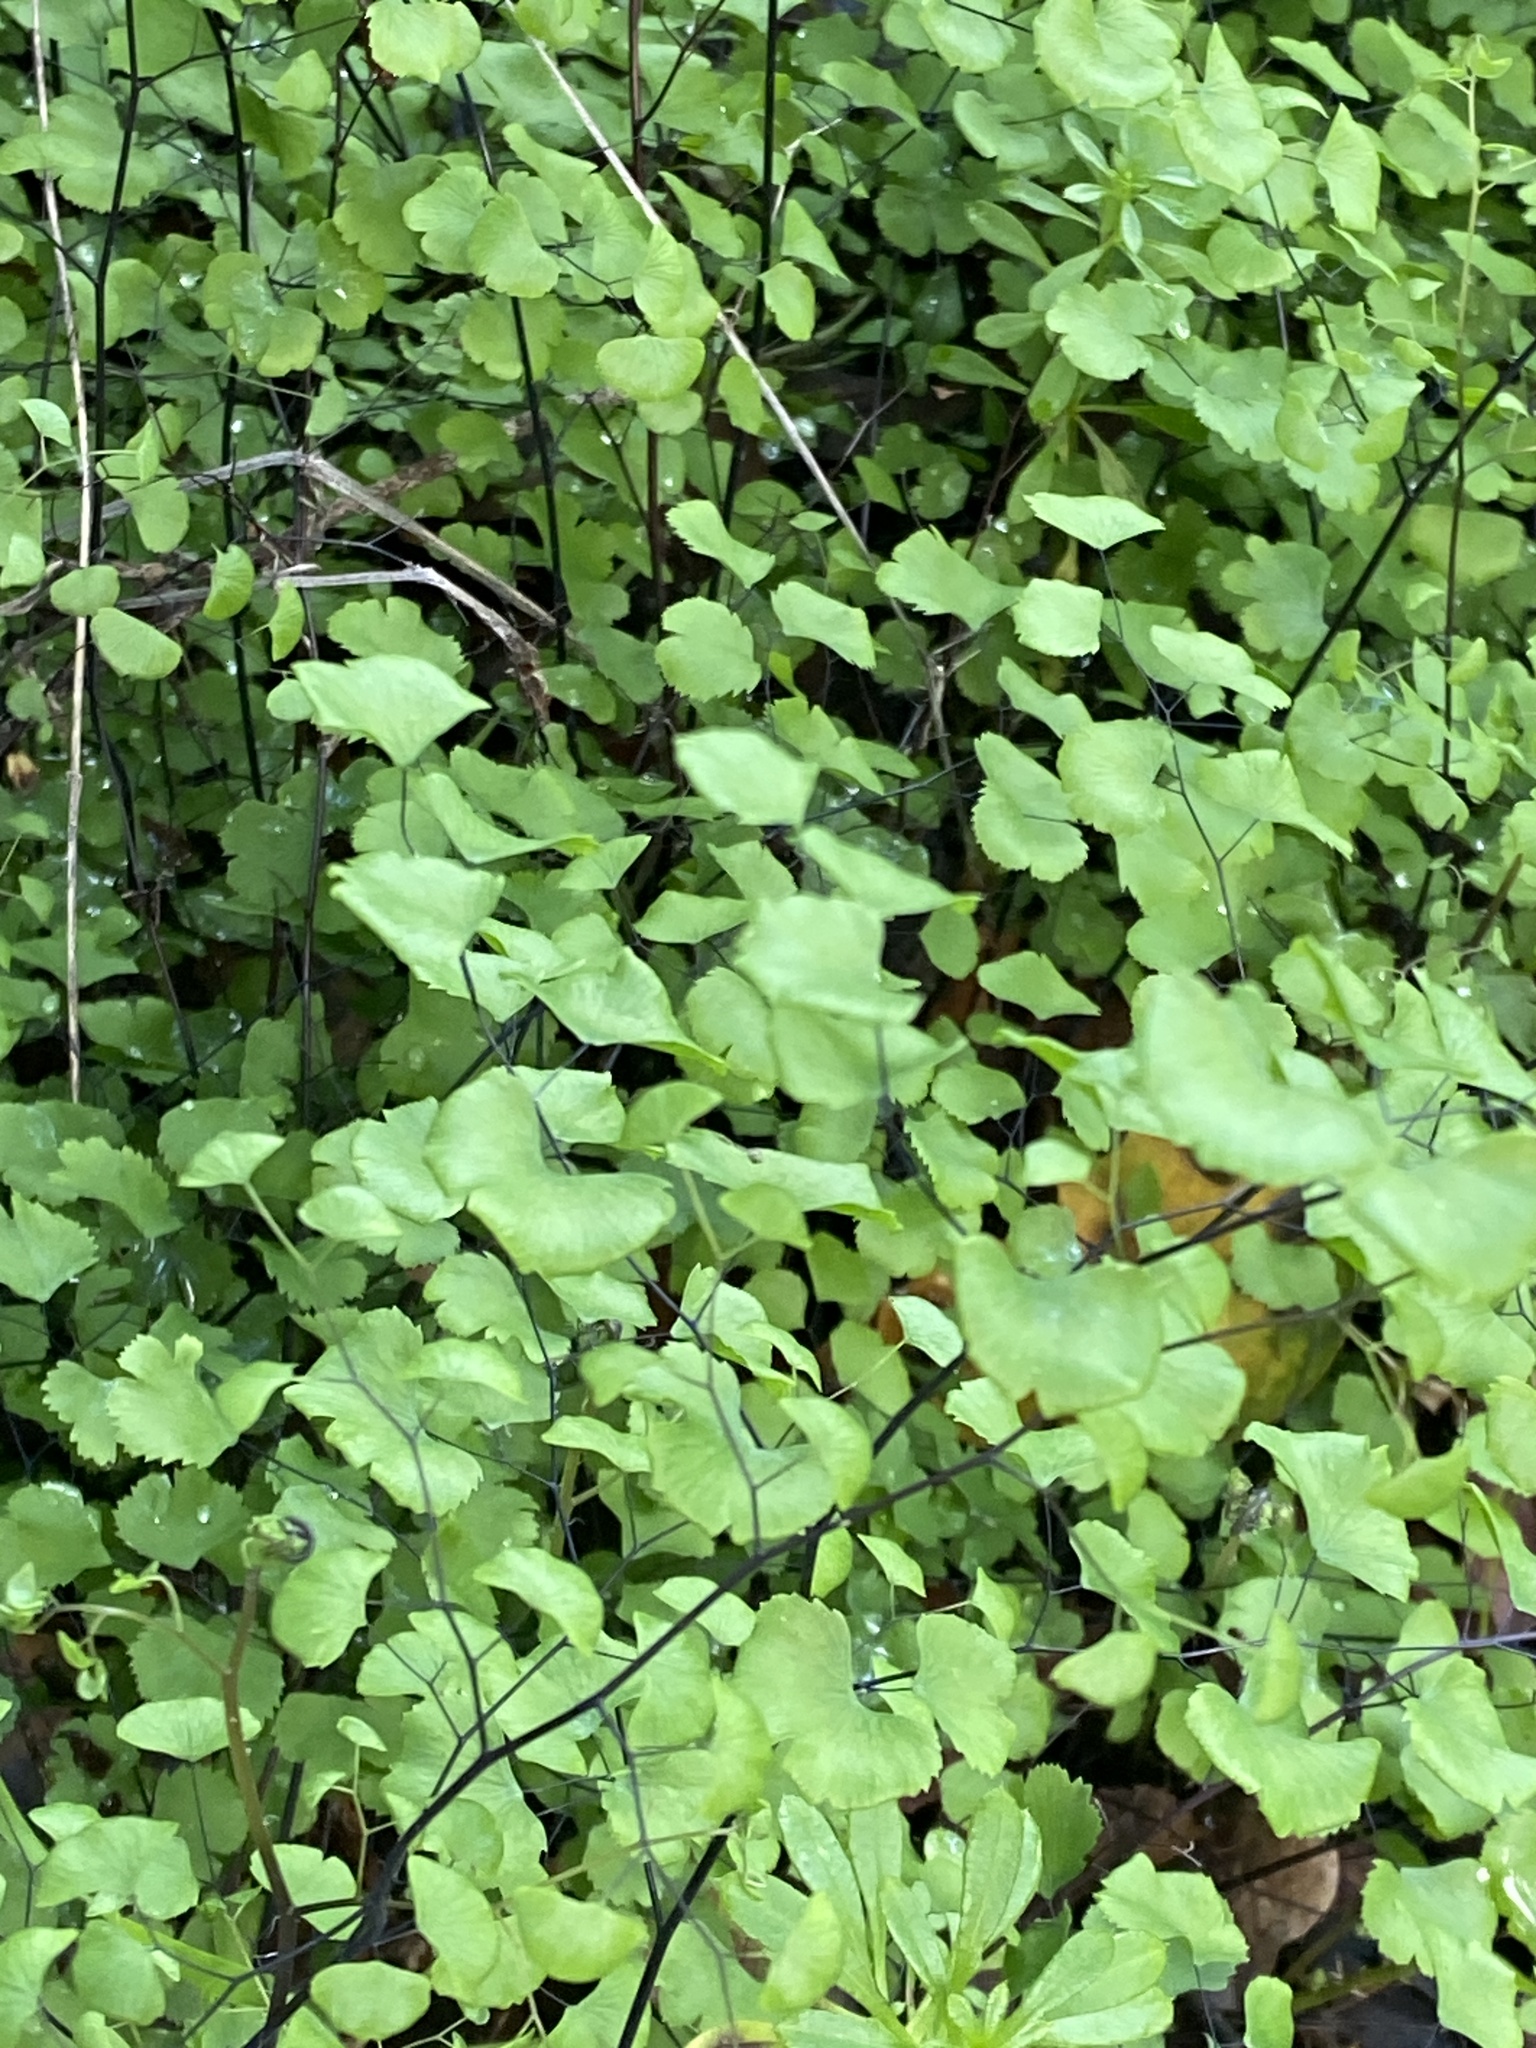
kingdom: Plantae
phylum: Tracheophyta
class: Polypodiopsida
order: Polypodiales
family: Pteridaceae
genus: Adiantum
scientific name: Adiantum jordanii
